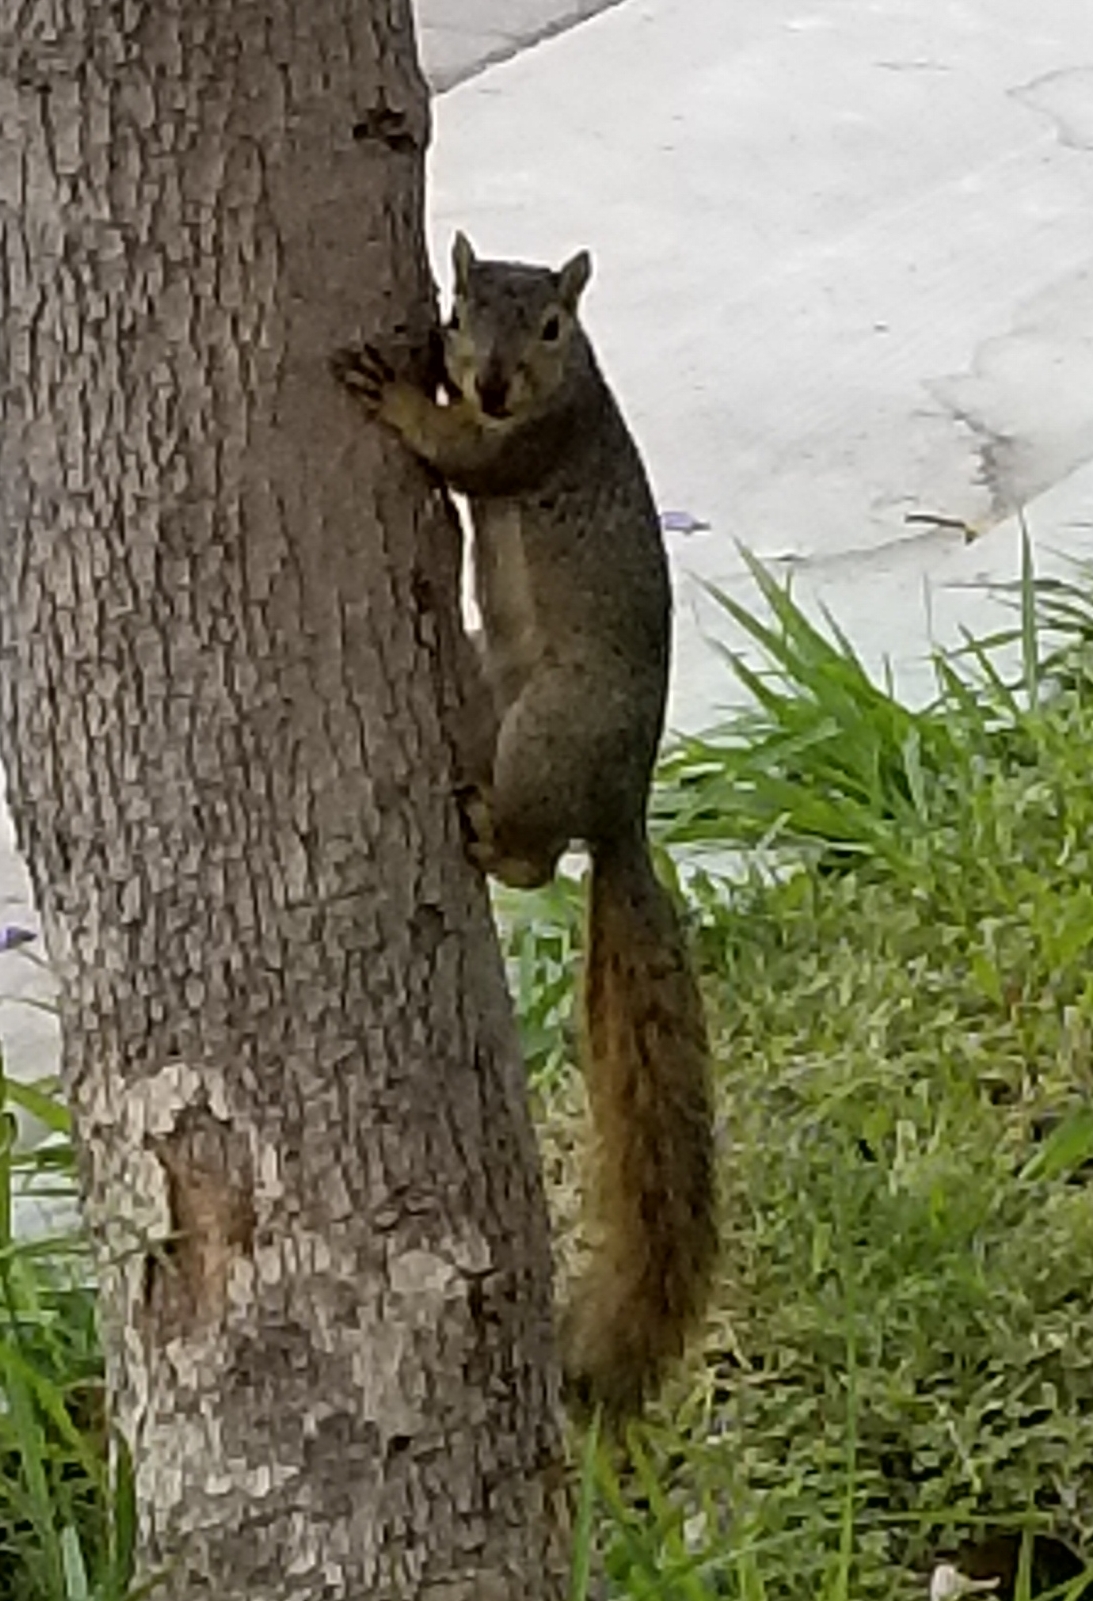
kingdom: Animalia
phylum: Chordata
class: Mammalia
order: Rodentia
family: Sciuridae
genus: Sciurus
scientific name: Sciurus niger
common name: Fox squirrel
